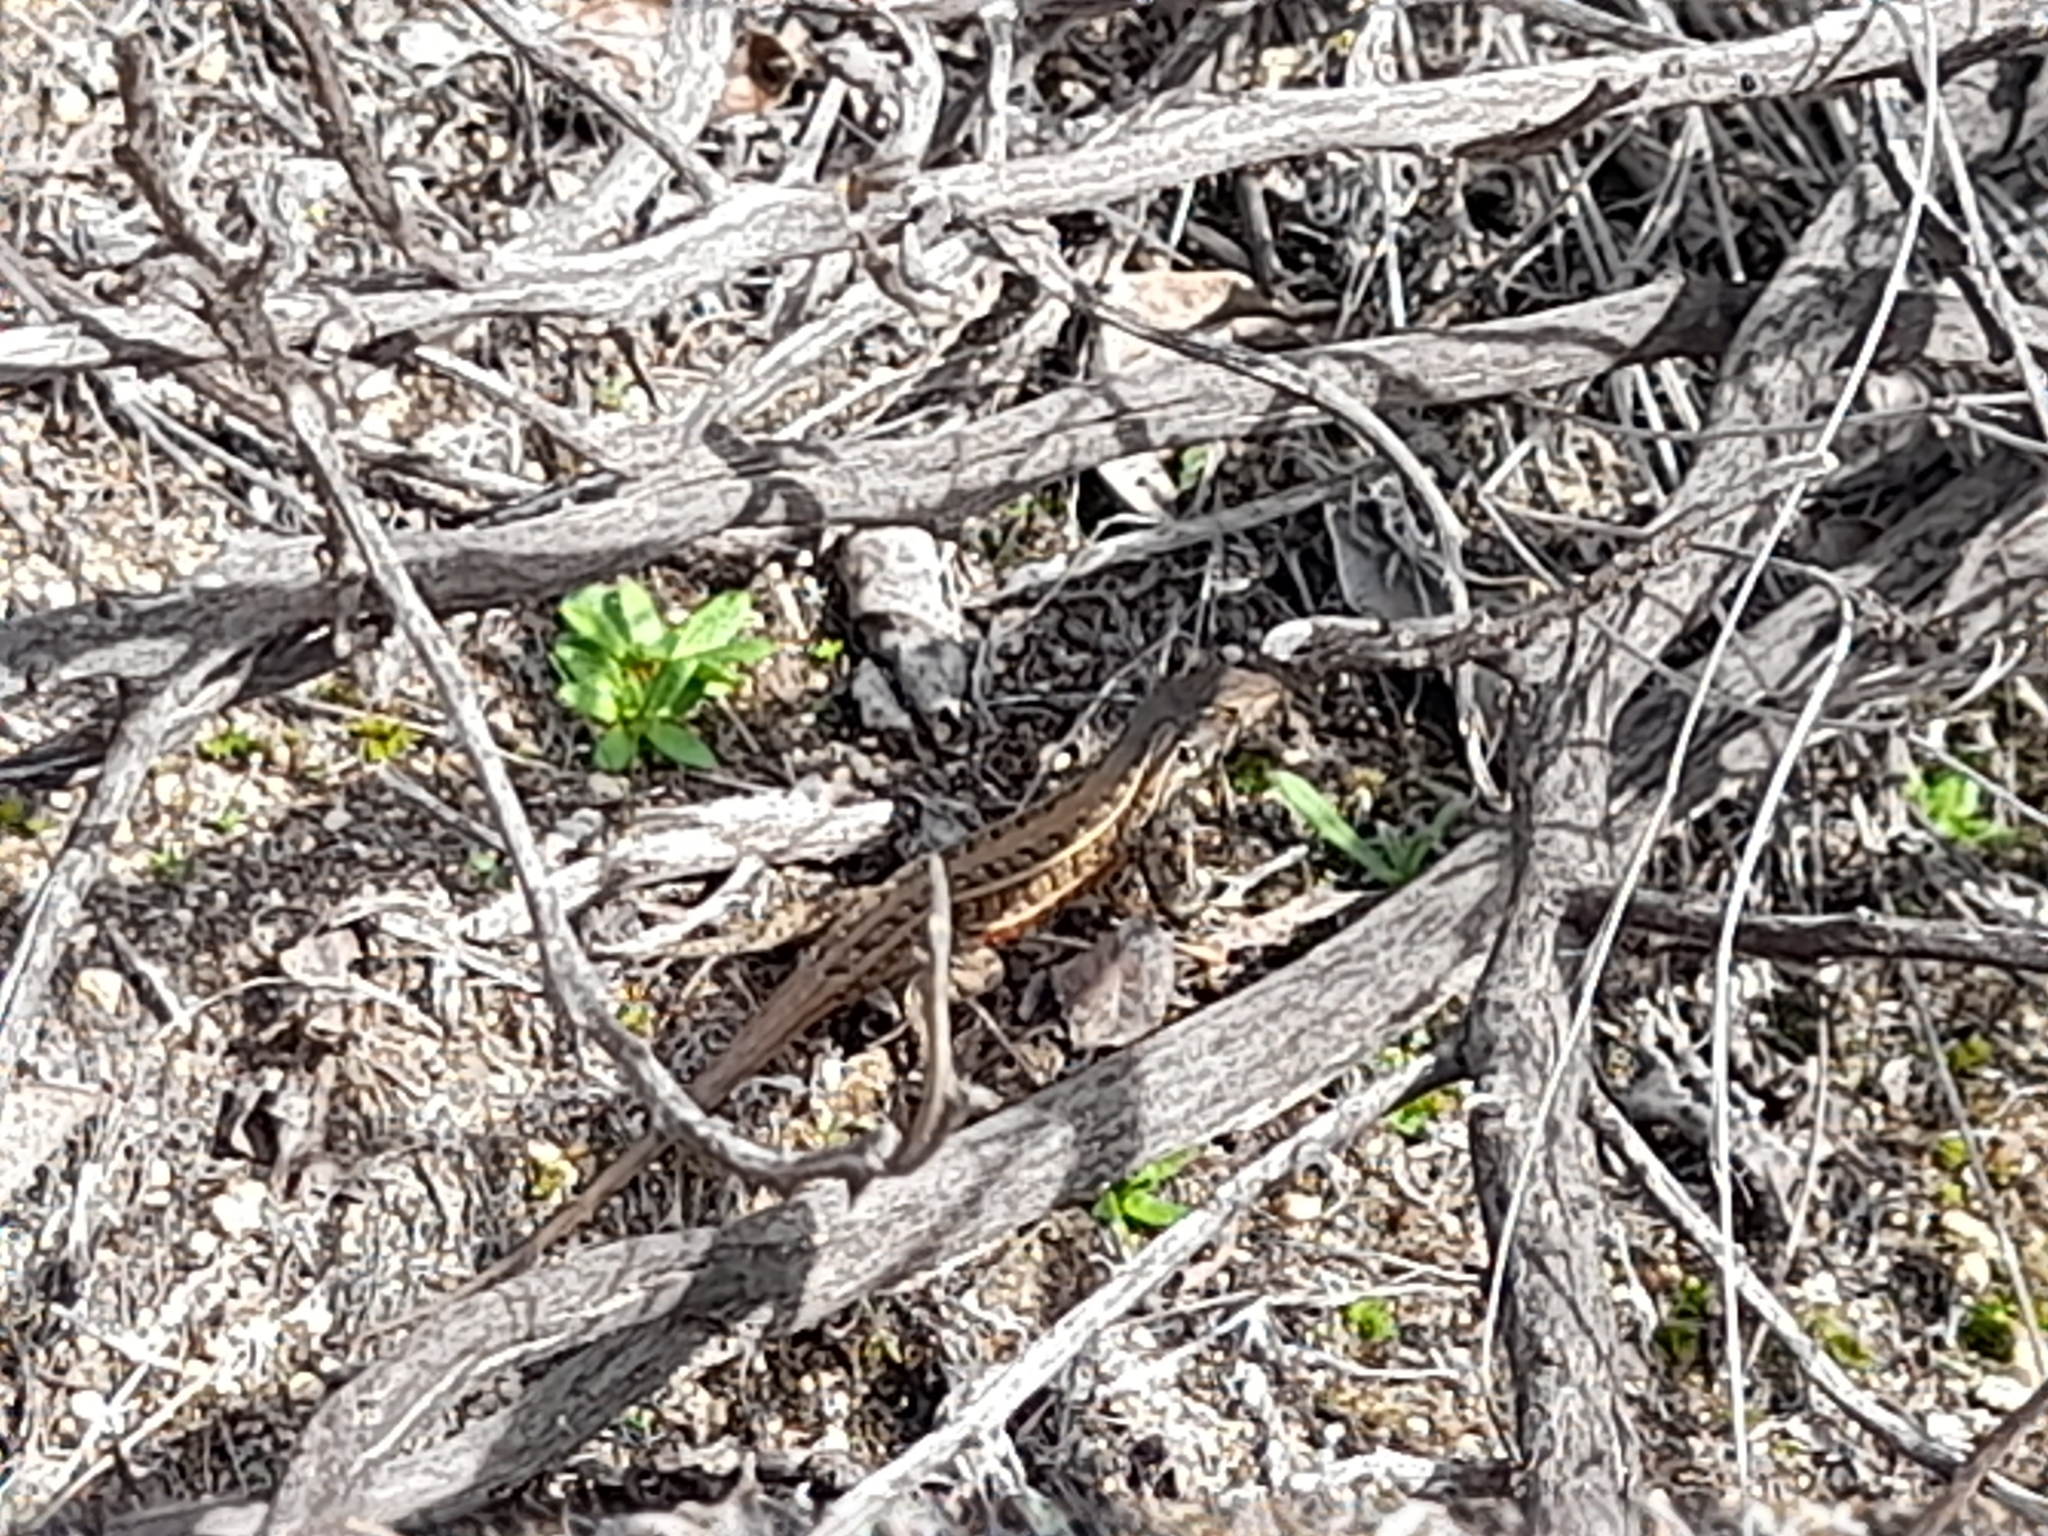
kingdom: Animalia
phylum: Chordata
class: Squamata
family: Liolaemidae
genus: Liolaemus
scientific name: Liolaemus lemniscatus
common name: Wreath tree iguana
